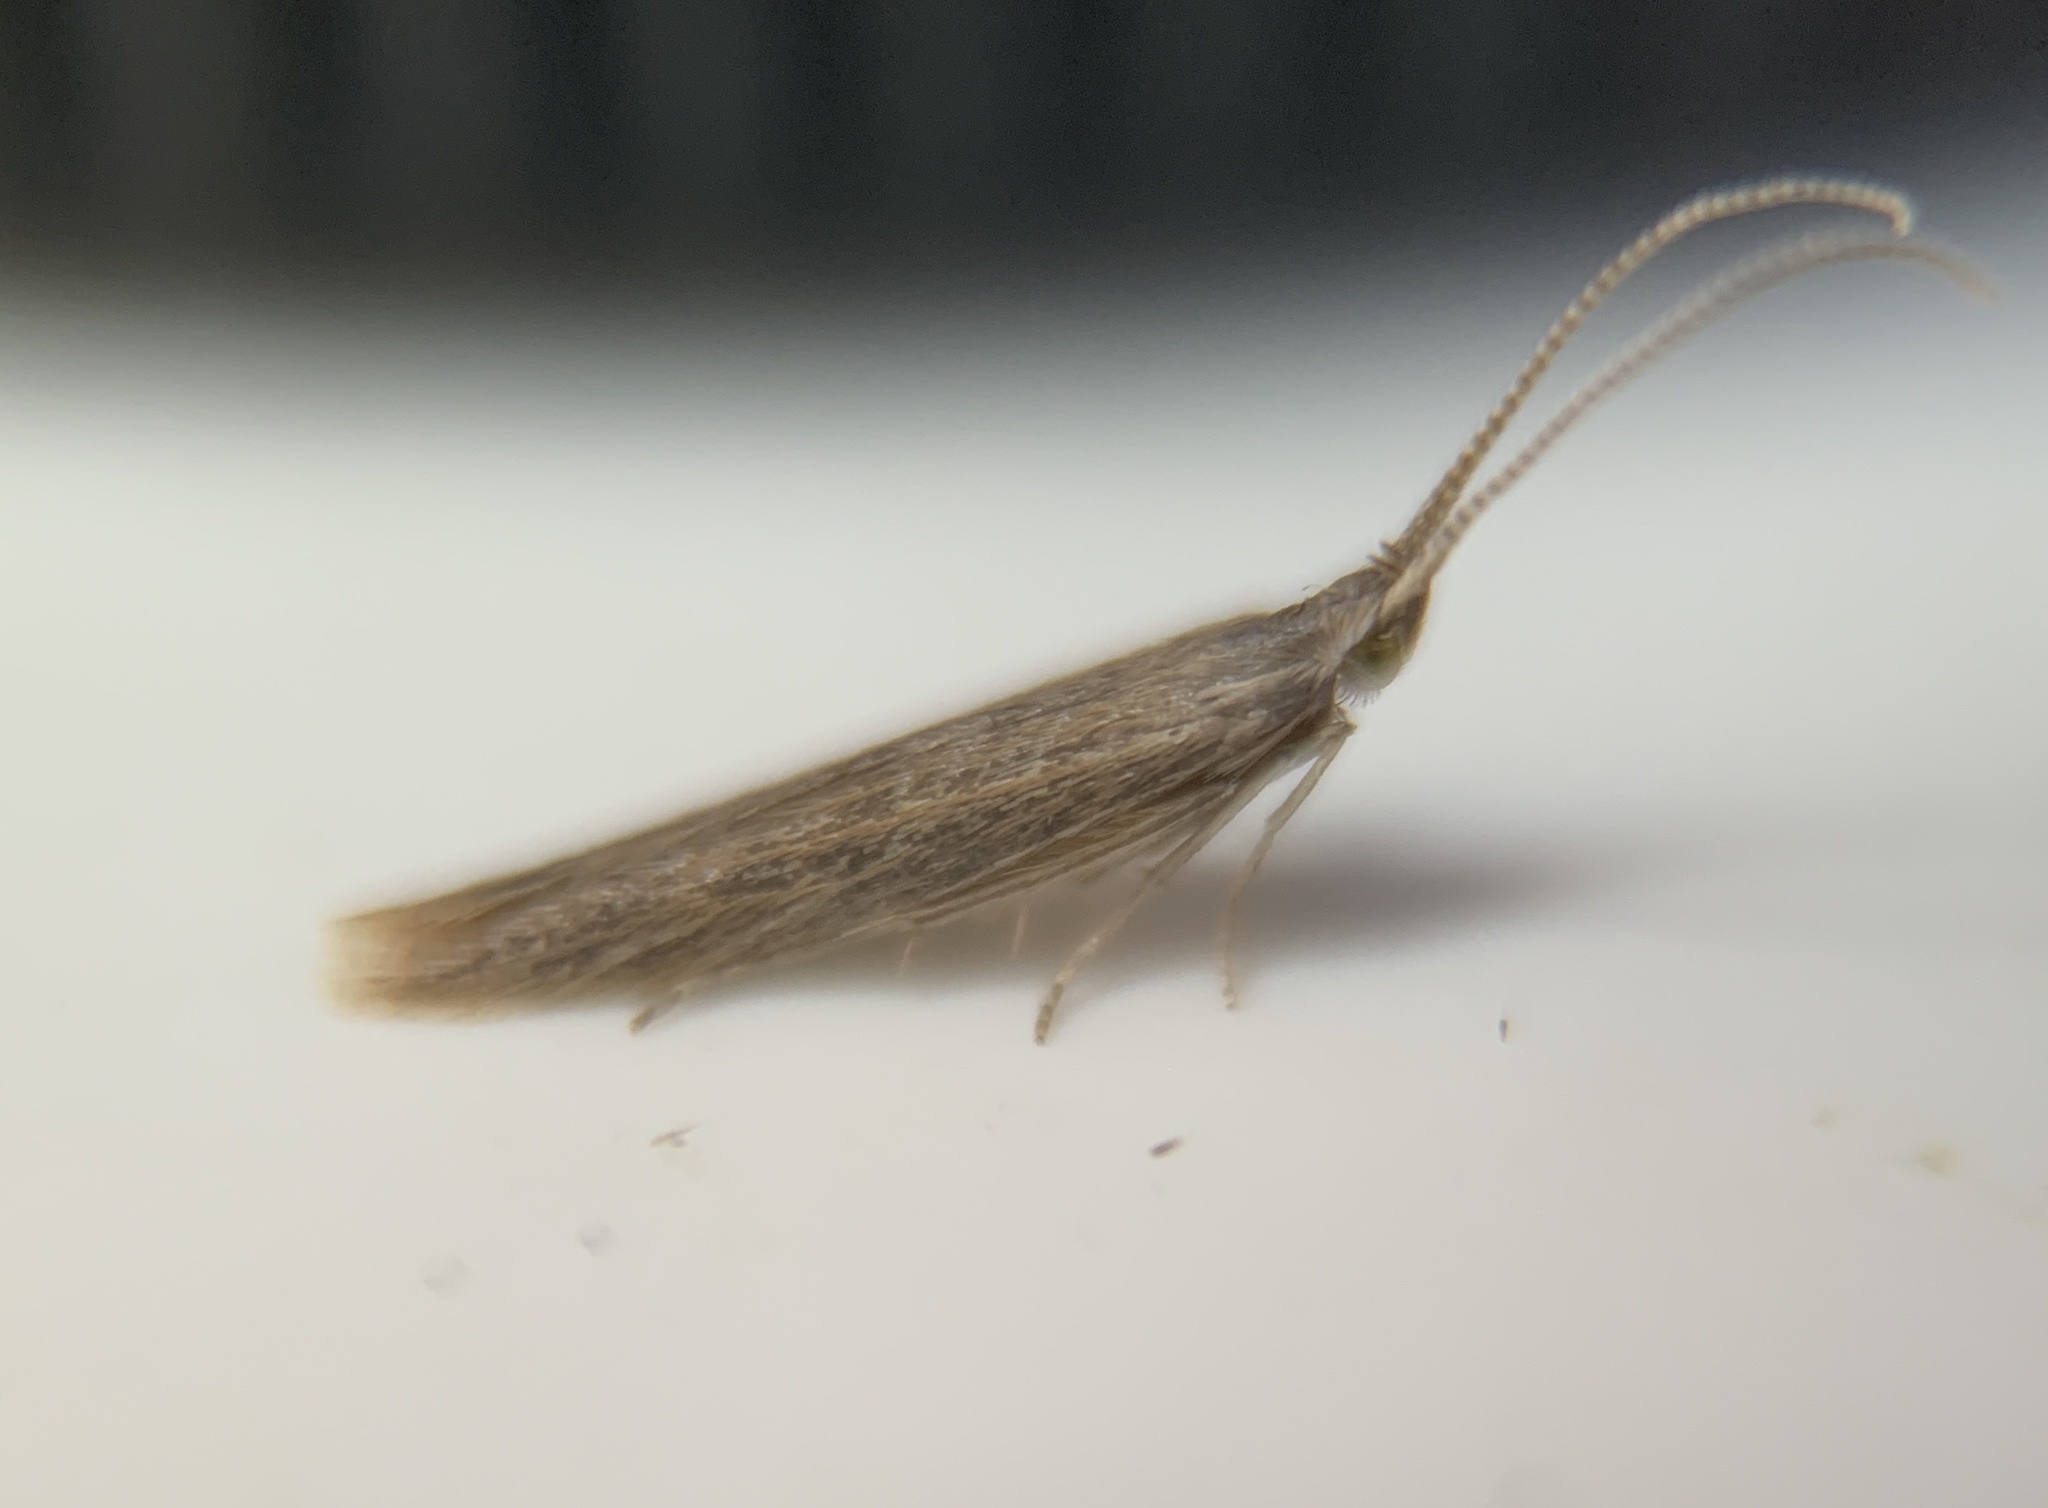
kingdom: Animalia
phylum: Arthropoda
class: Insecta
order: Lepidoptera
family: Coleophoridae
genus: Coleophora
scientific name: Coleophora texanella
